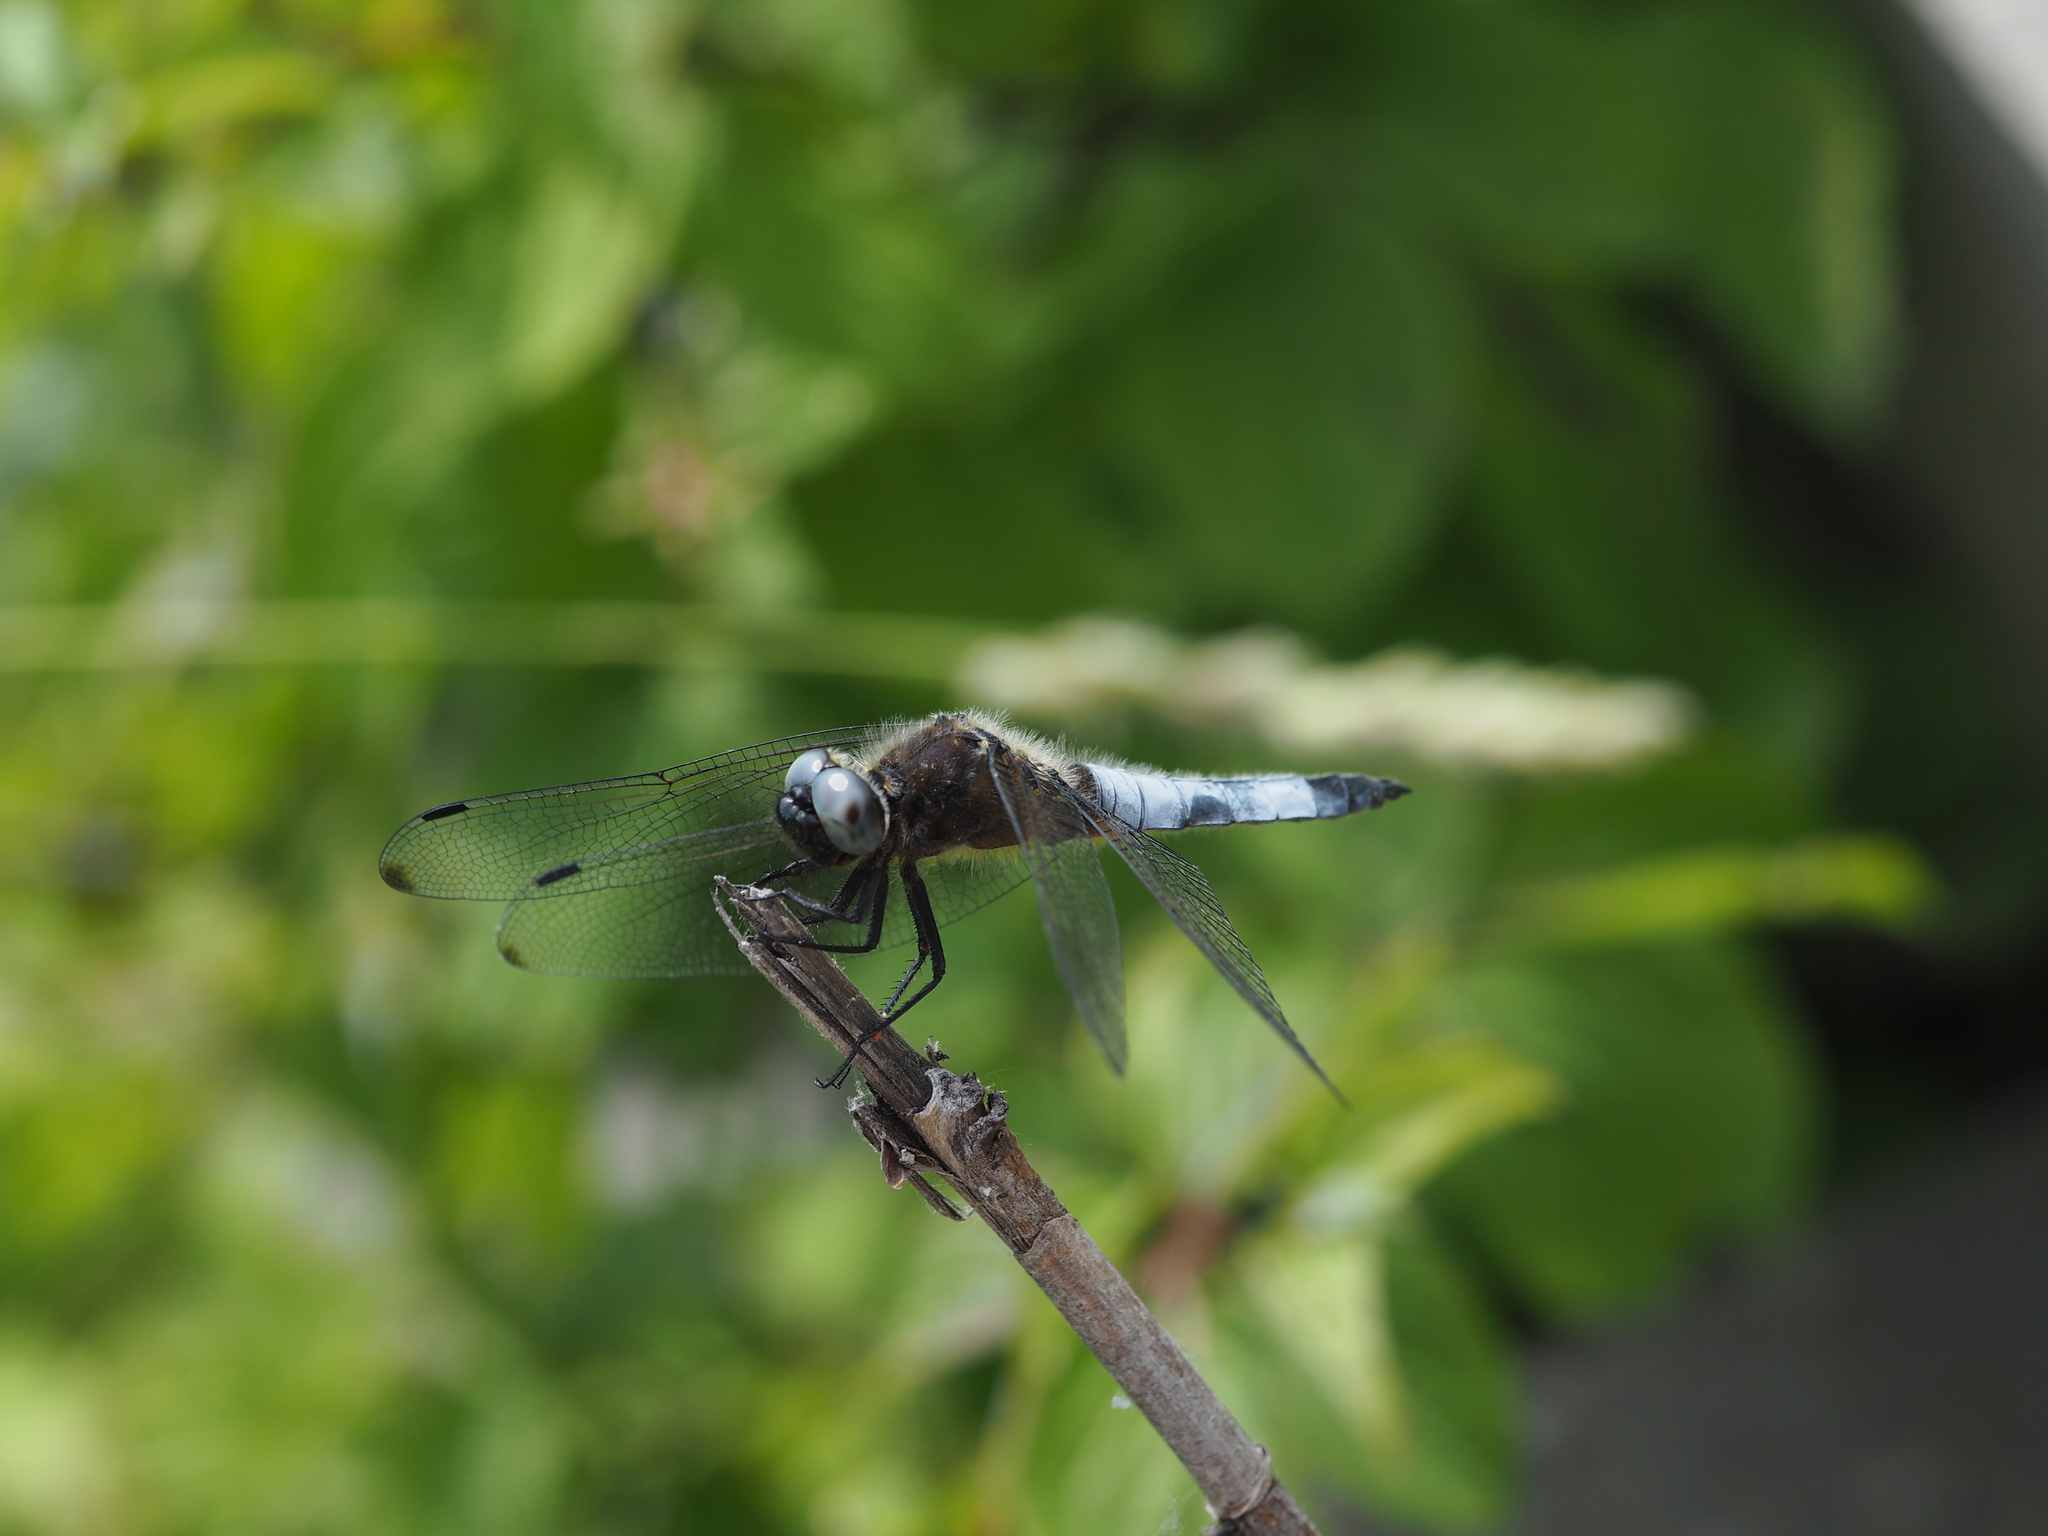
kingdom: Animalia
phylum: Arthropoda
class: Insecta
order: Odonata
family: Libellulidae
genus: Libellula
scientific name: Libellula fulva
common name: Blue chaser
